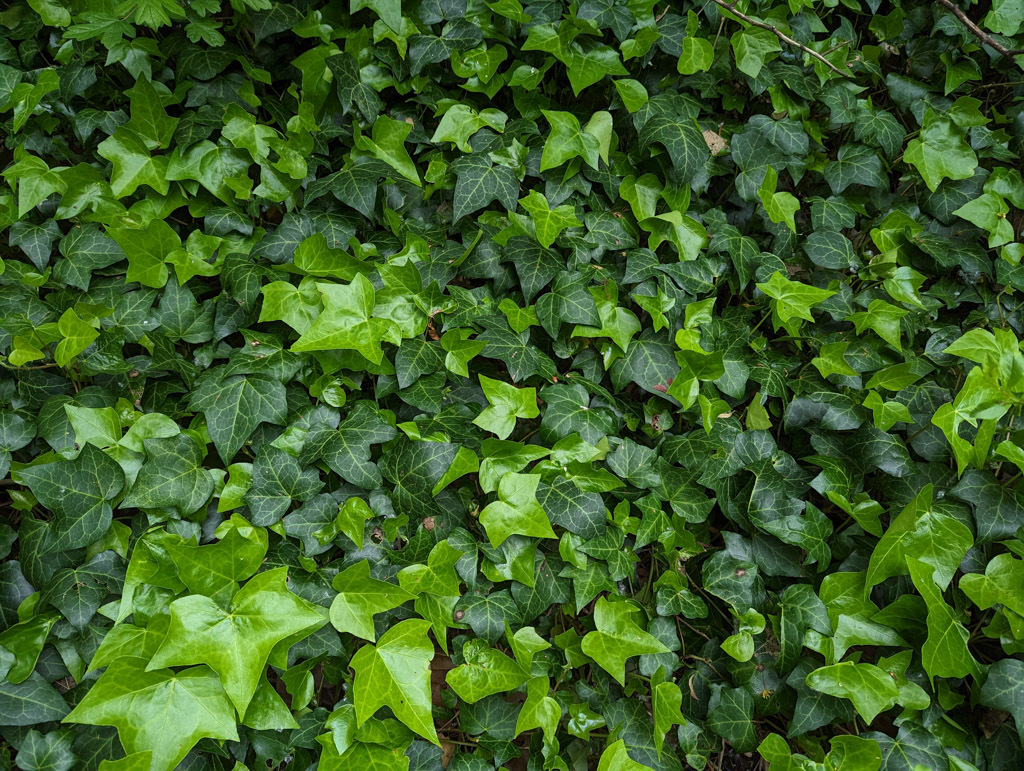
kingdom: Plantae
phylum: Tracheophyta
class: Magnoliopsida
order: Apiales
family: Araliaceae
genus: Hedera
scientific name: Hedera helix
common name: Ivy
